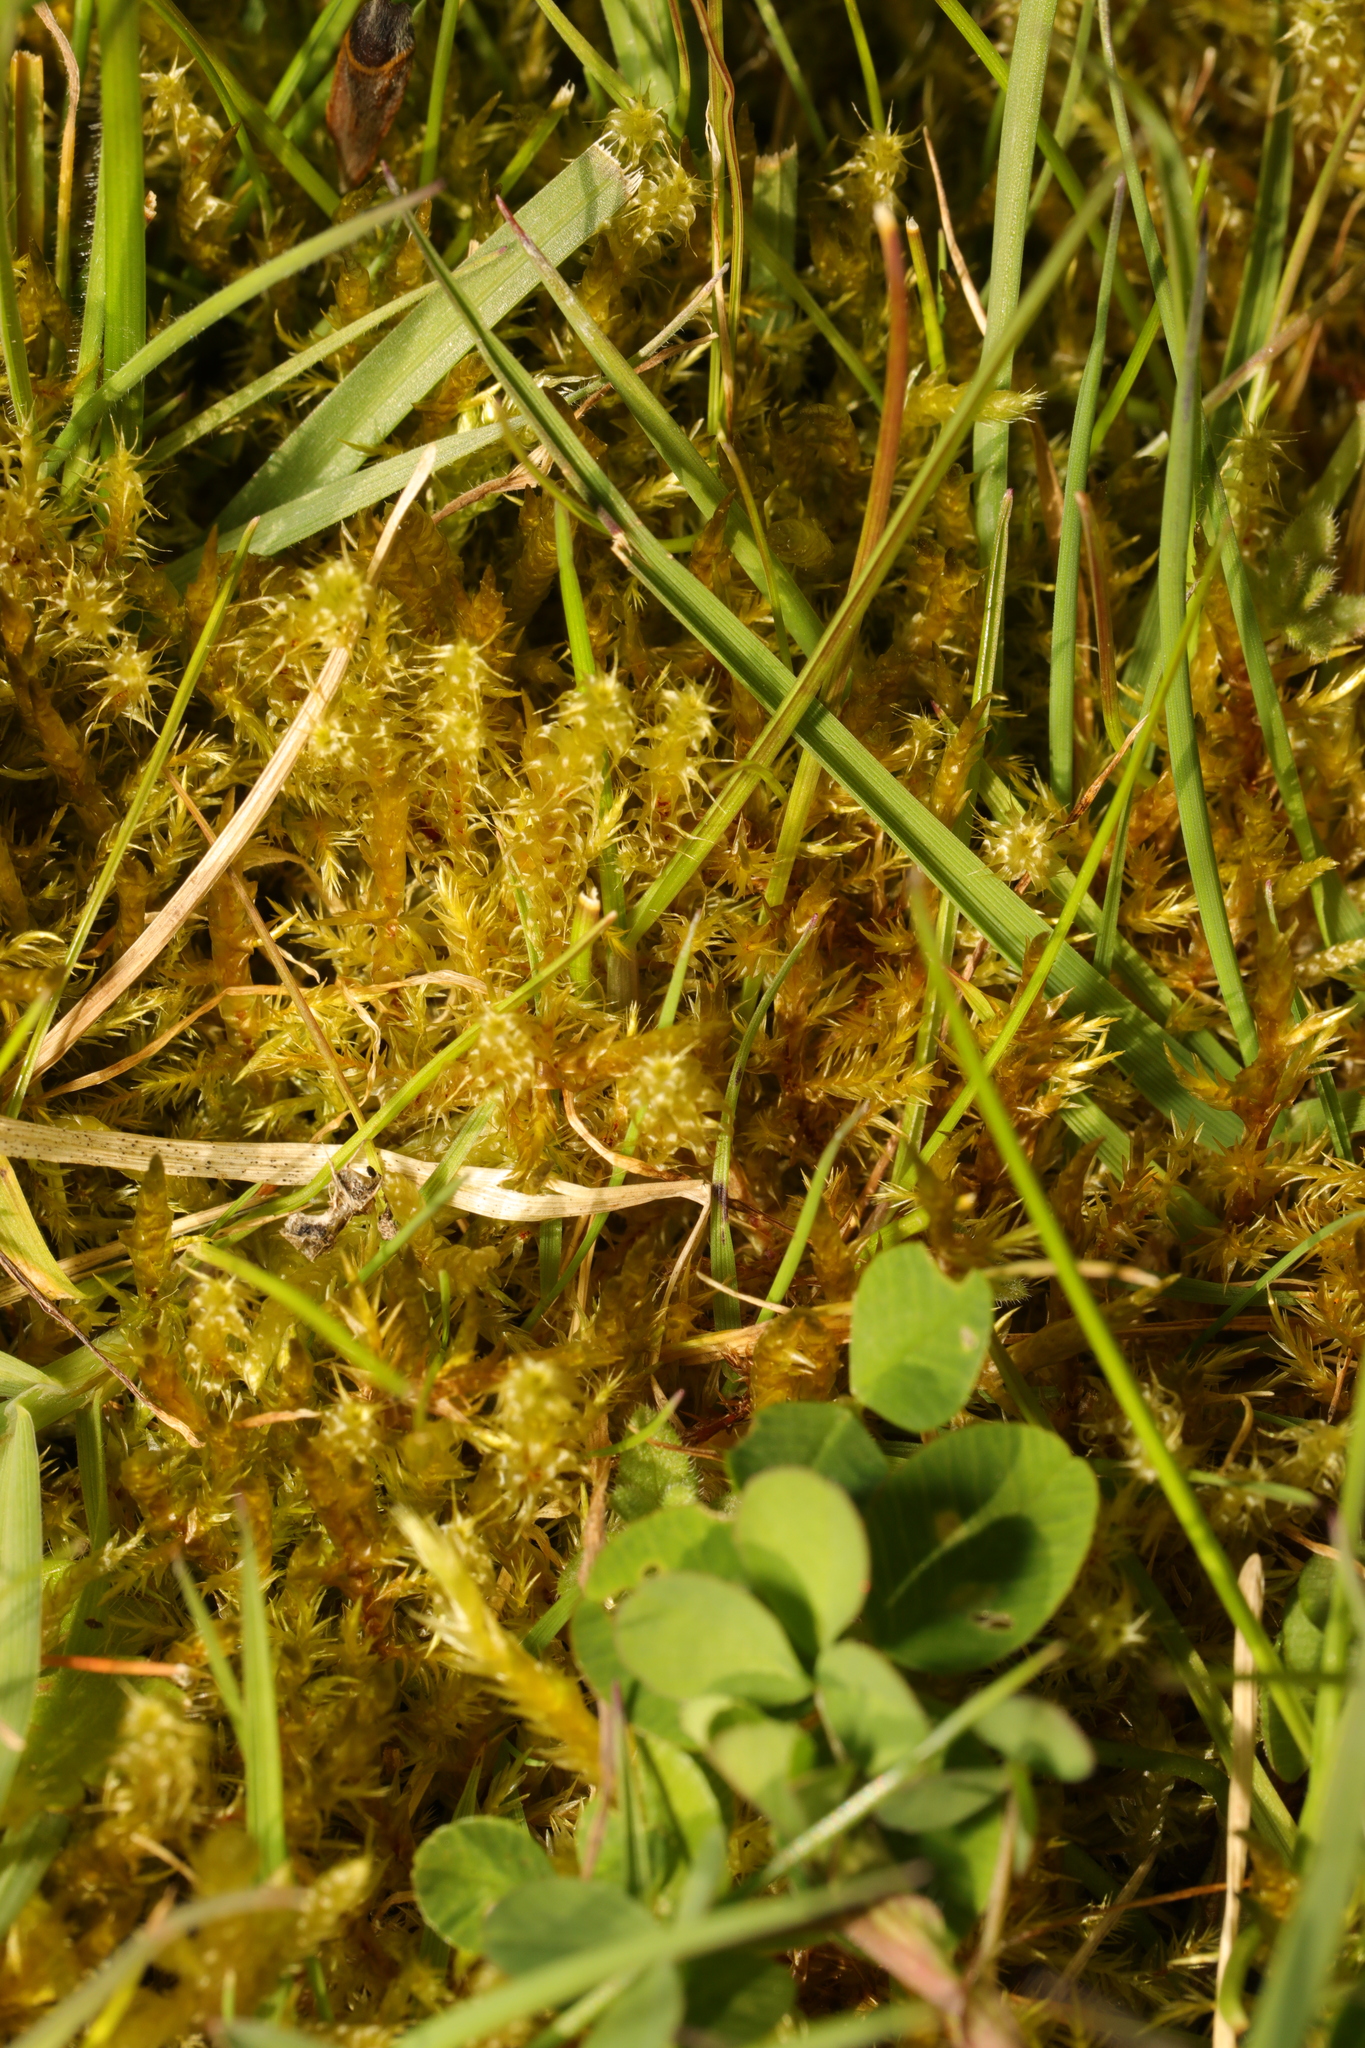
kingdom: Plantae
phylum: Bryophyta
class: Bryopsida
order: Hypnales
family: Hylocomiaceae
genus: Rhytidiadelphus
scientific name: Rhytidiadelphus squarrosus
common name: Springy turf-moss
